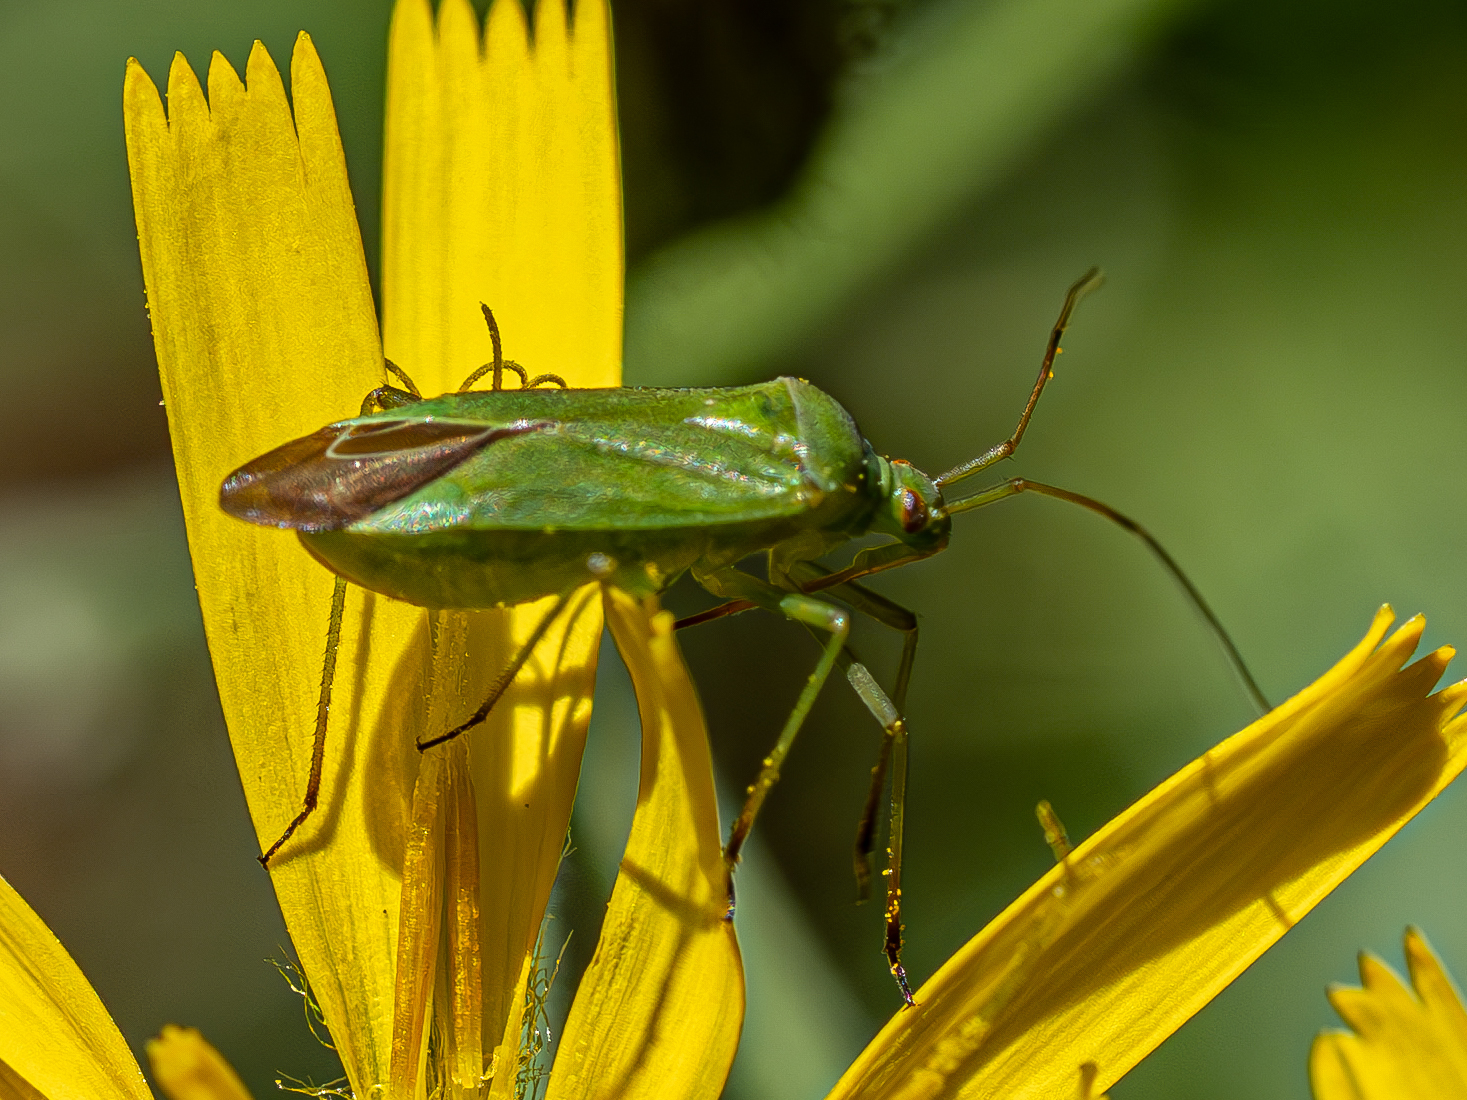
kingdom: Animalia
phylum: Arthropoda
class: Insecta
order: Hemiptera
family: Miridae
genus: Calocoris
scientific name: Calocoris affinis
